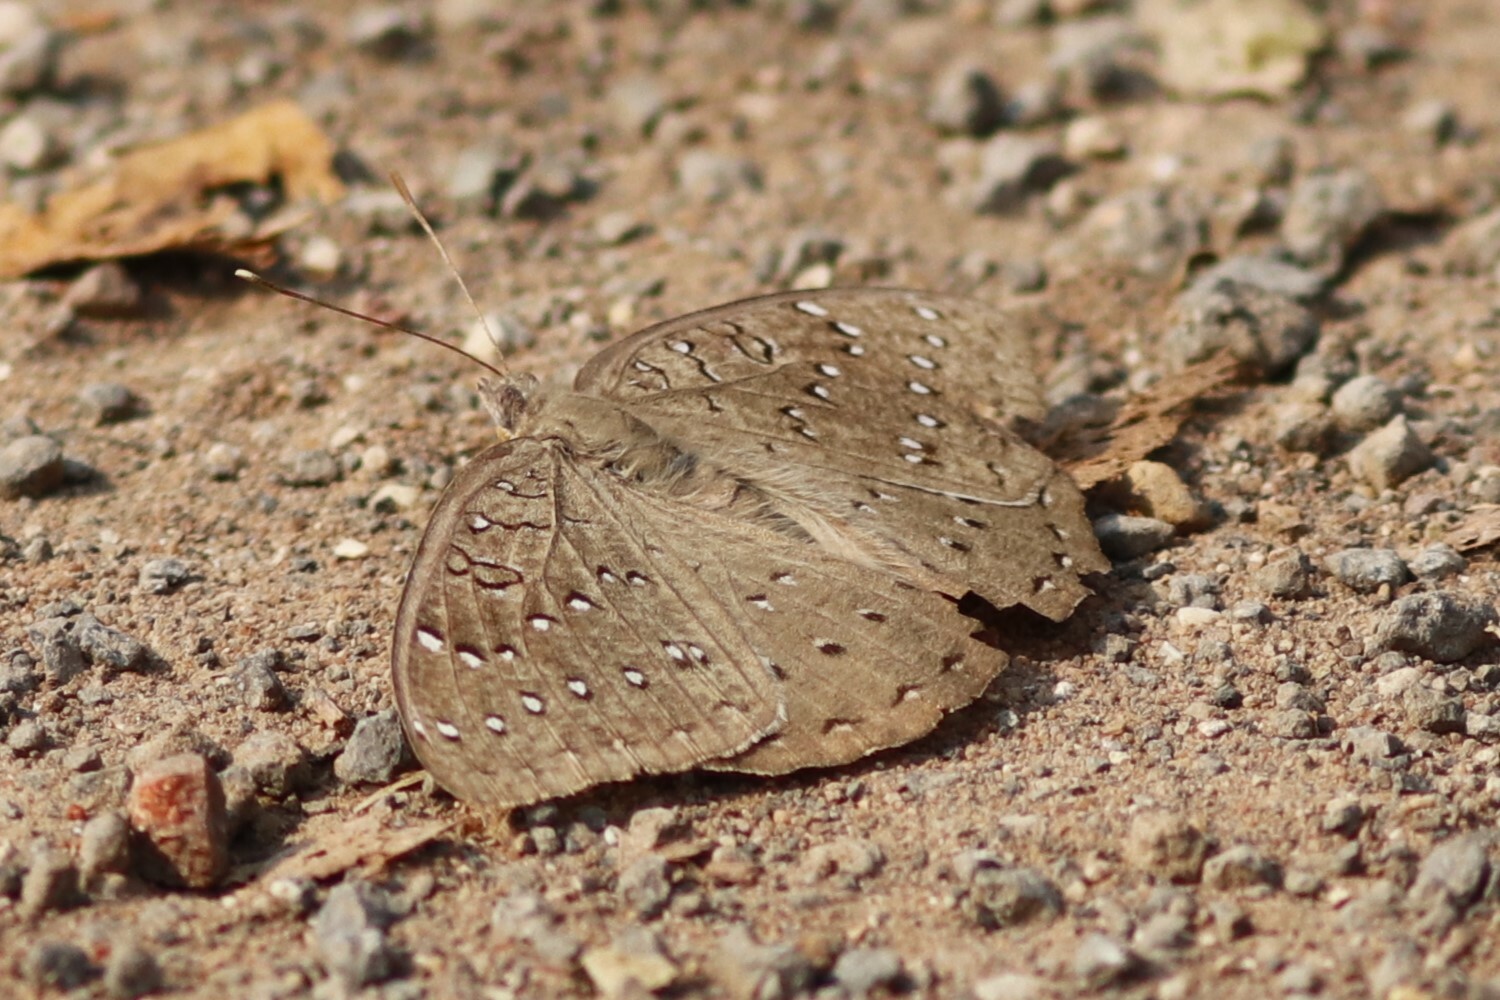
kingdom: Animalia
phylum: Arthropoda
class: Insecta
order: Lepidoptera
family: Nymphalidae
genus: Hamanumida
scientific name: Hamanumida daedalus
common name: Guinea-fowl butterfly
